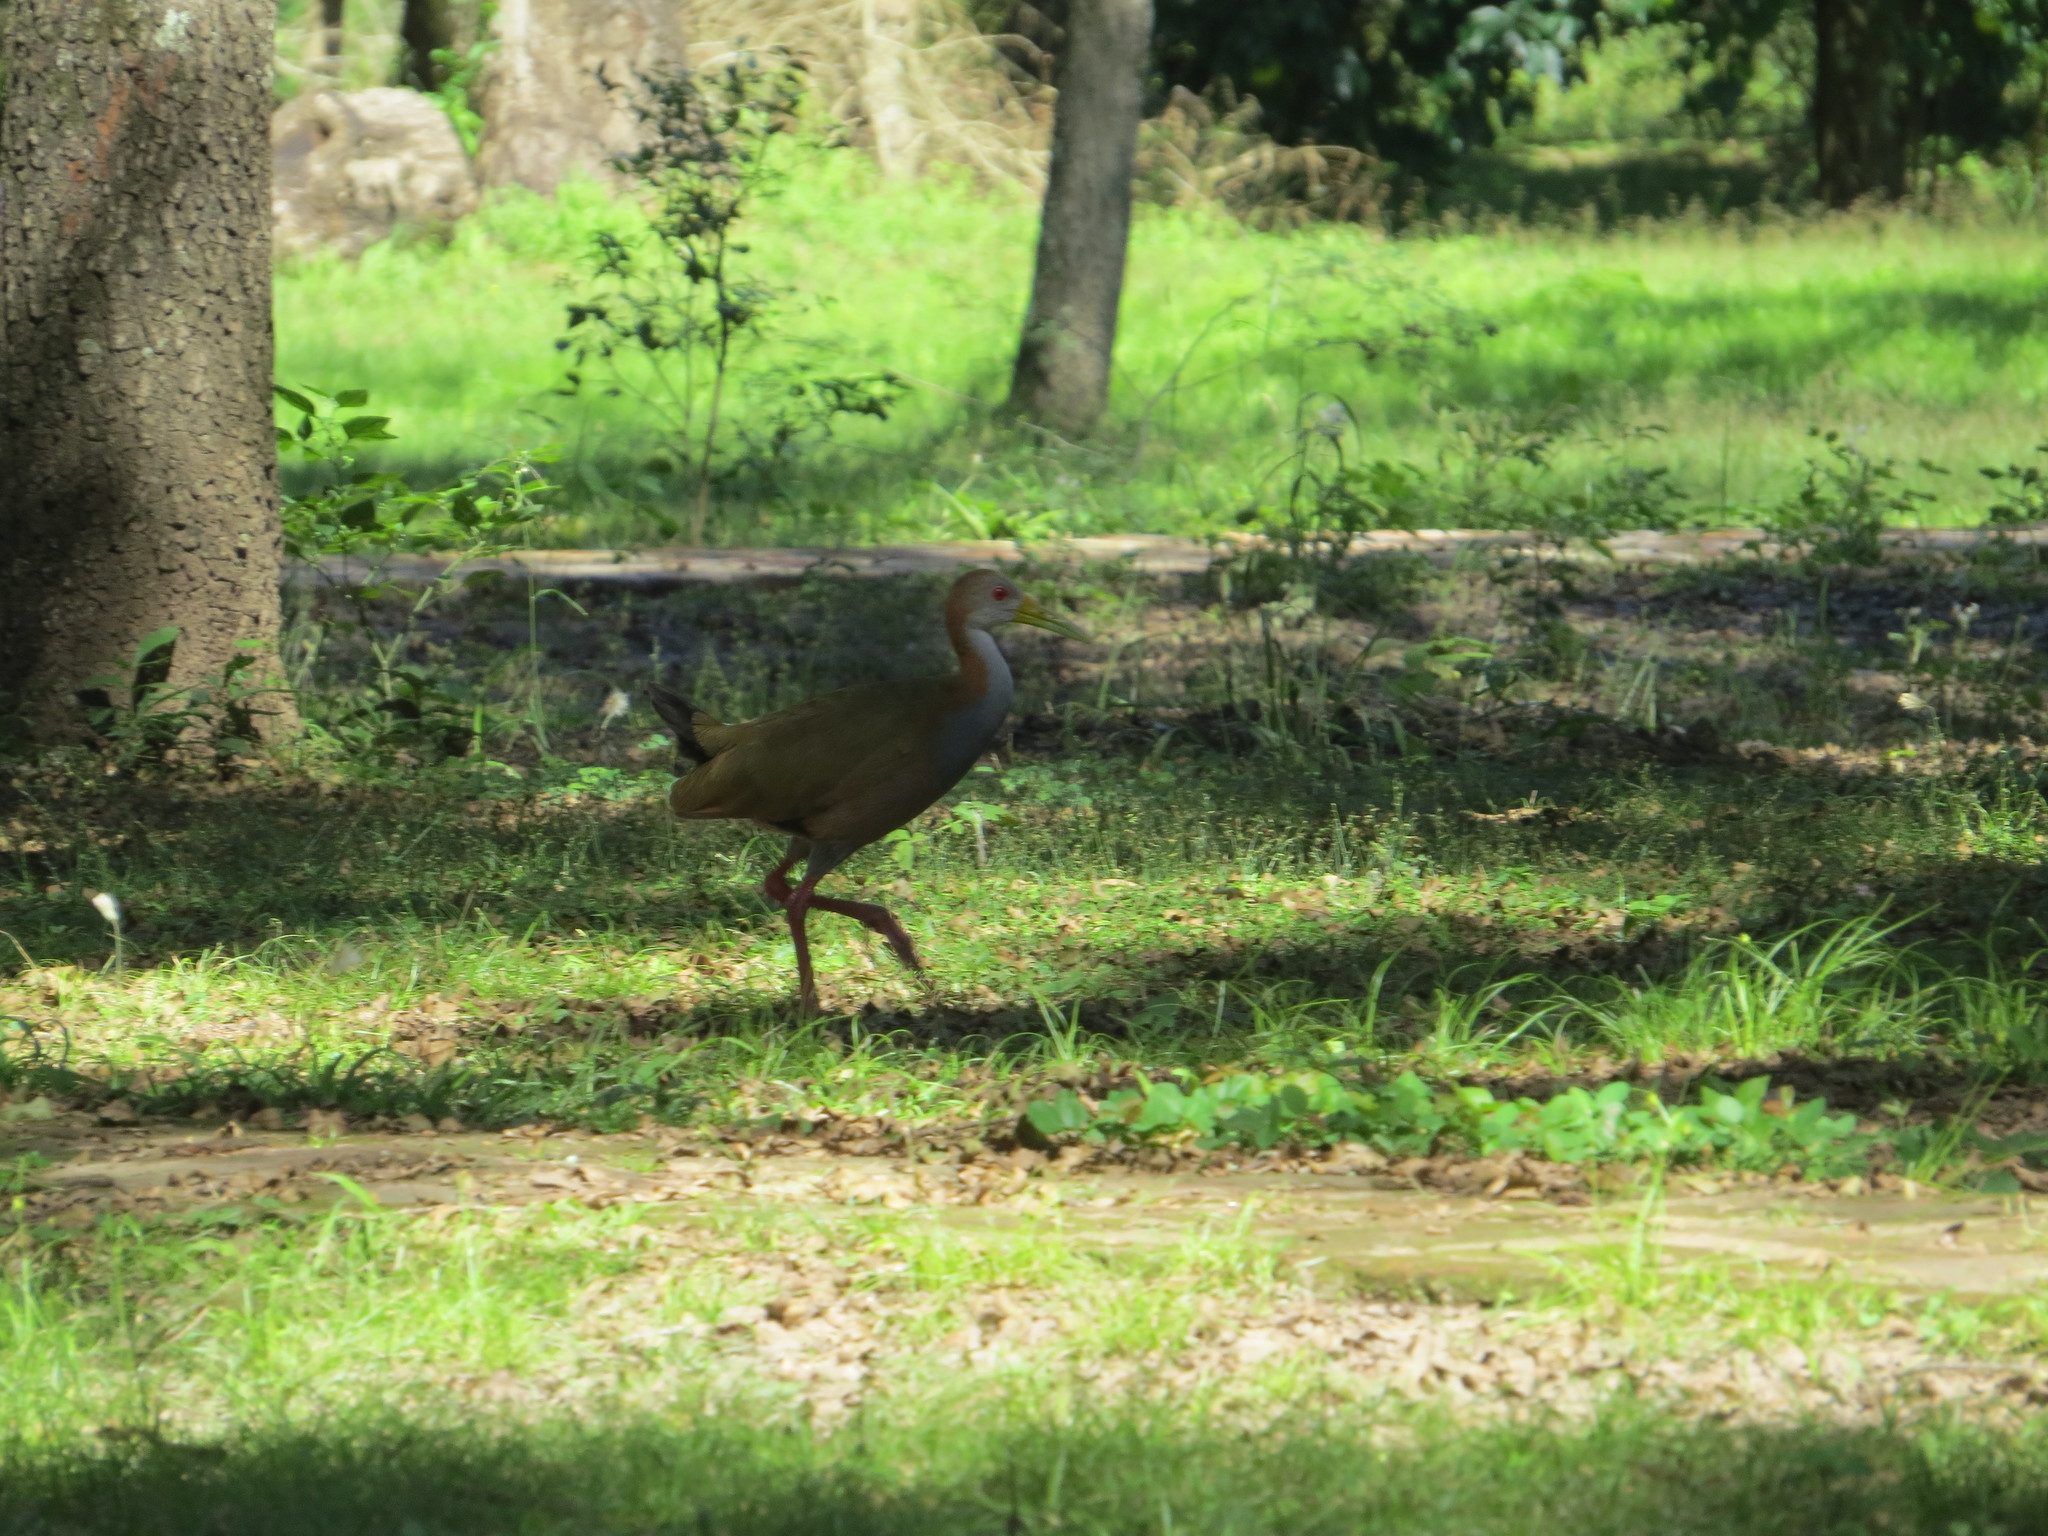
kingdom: Animalia
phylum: Chordata
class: Aves
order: Gruiformes
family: Rallidae
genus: Aramides
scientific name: Aramides ypecaha
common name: Giant wood rail
